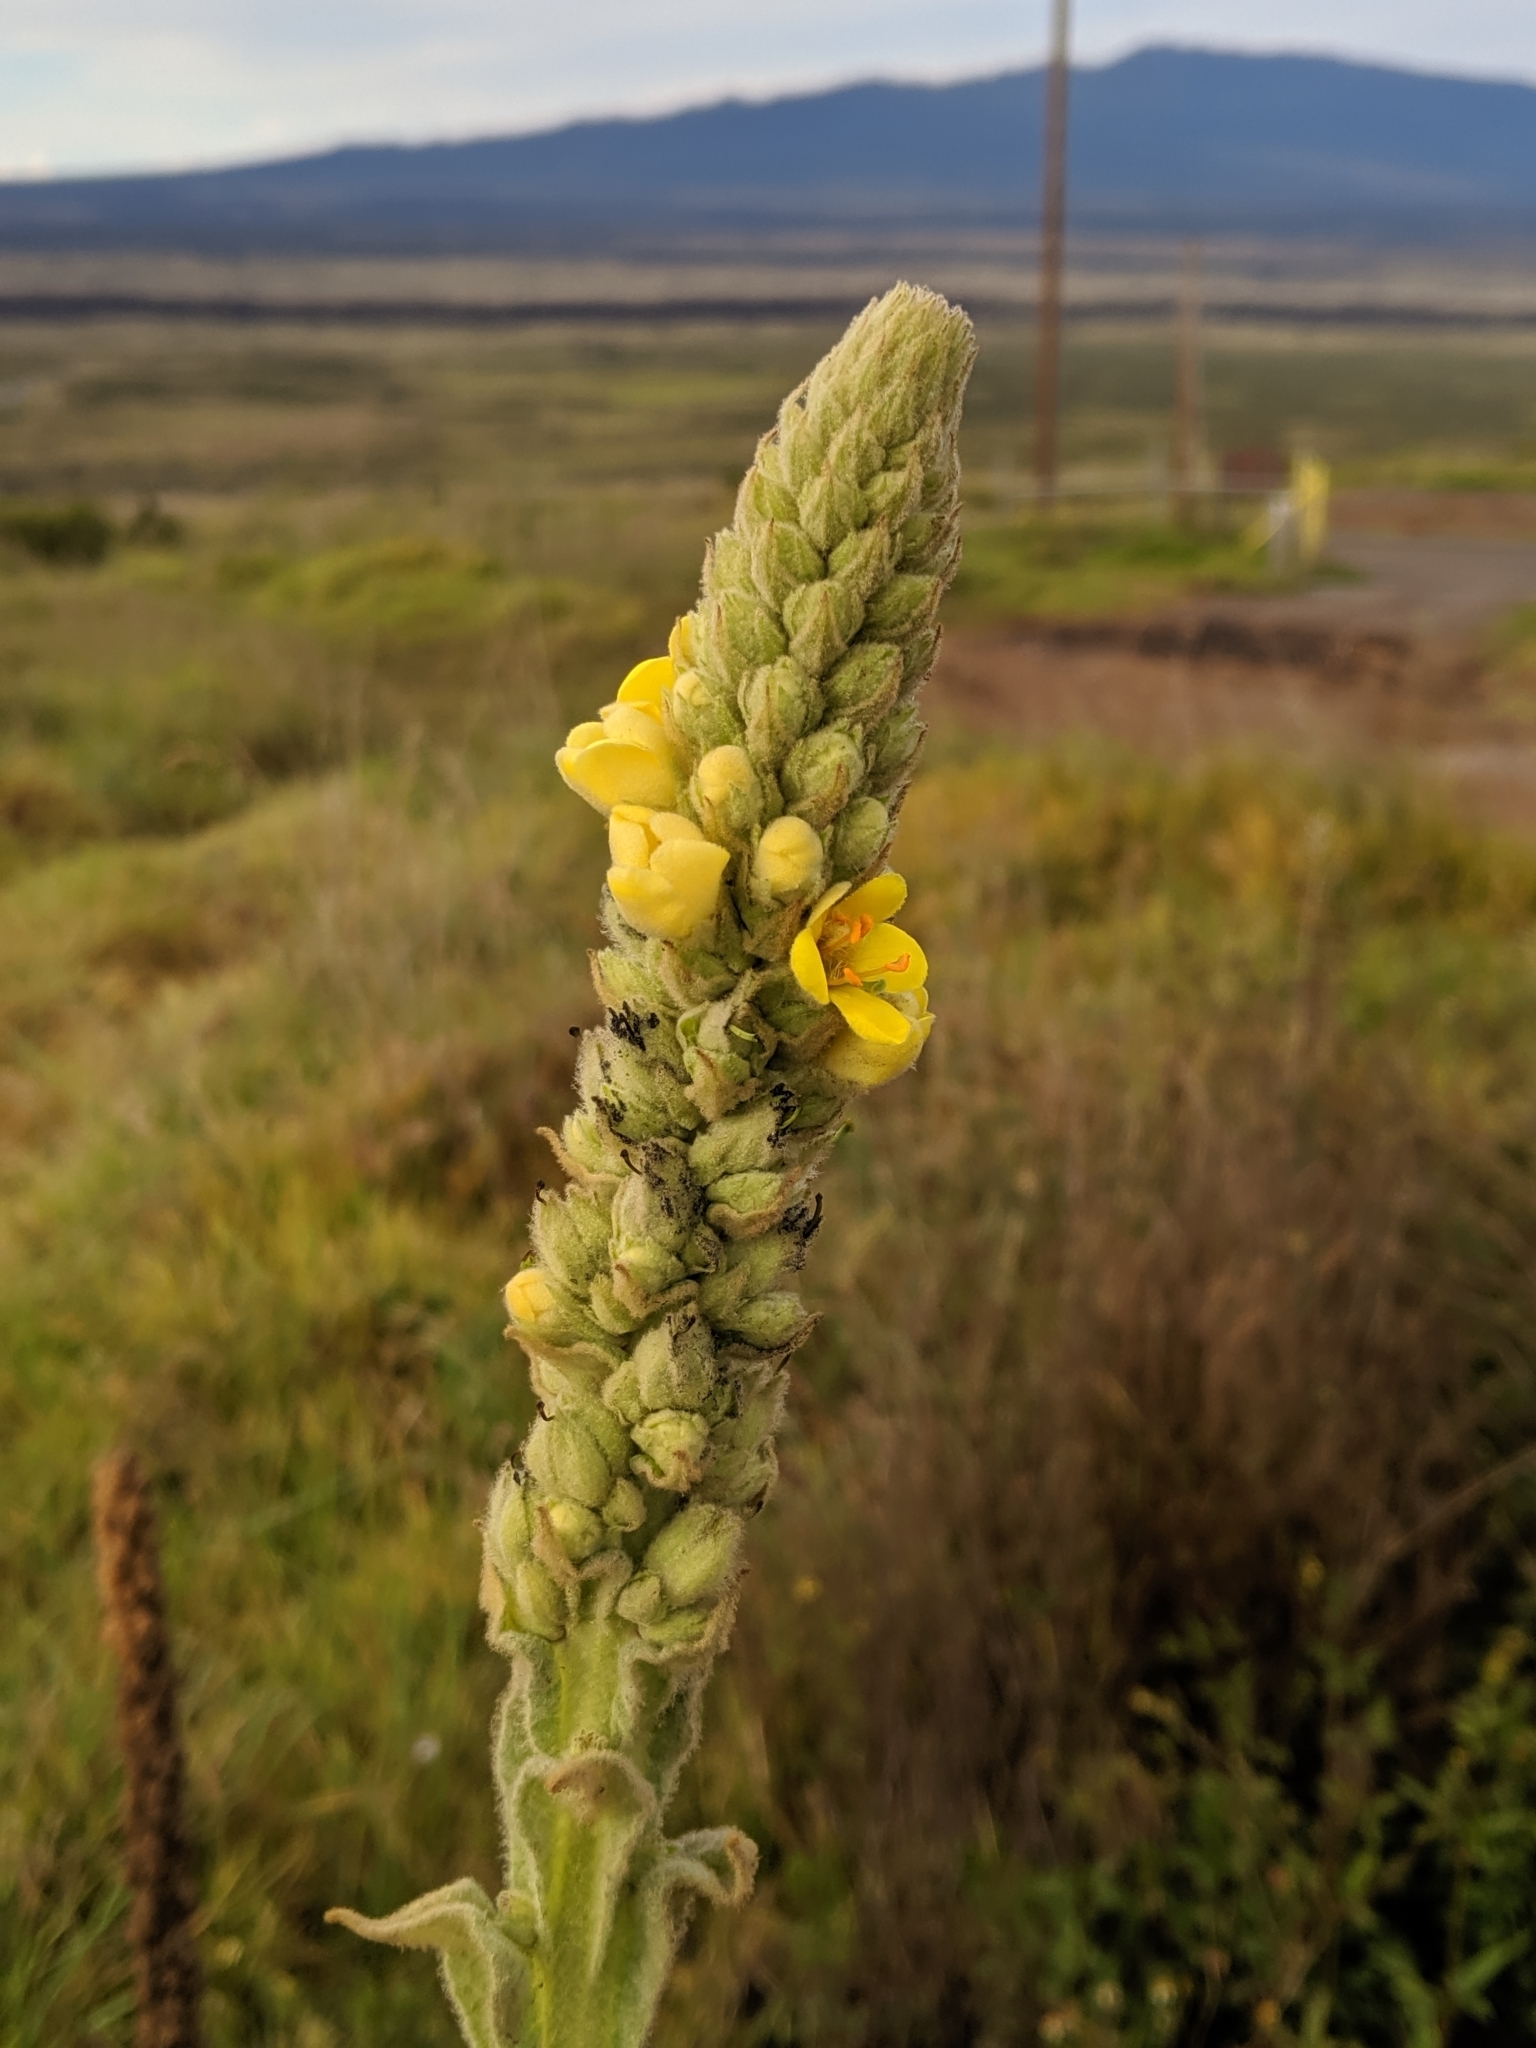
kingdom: Plantae
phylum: Tracheophyta
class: Magnoliopsida
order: Lamiales
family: Scrophulariaceae
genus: Verbascum
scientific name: Verbascum thapsus
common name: Common mullein
